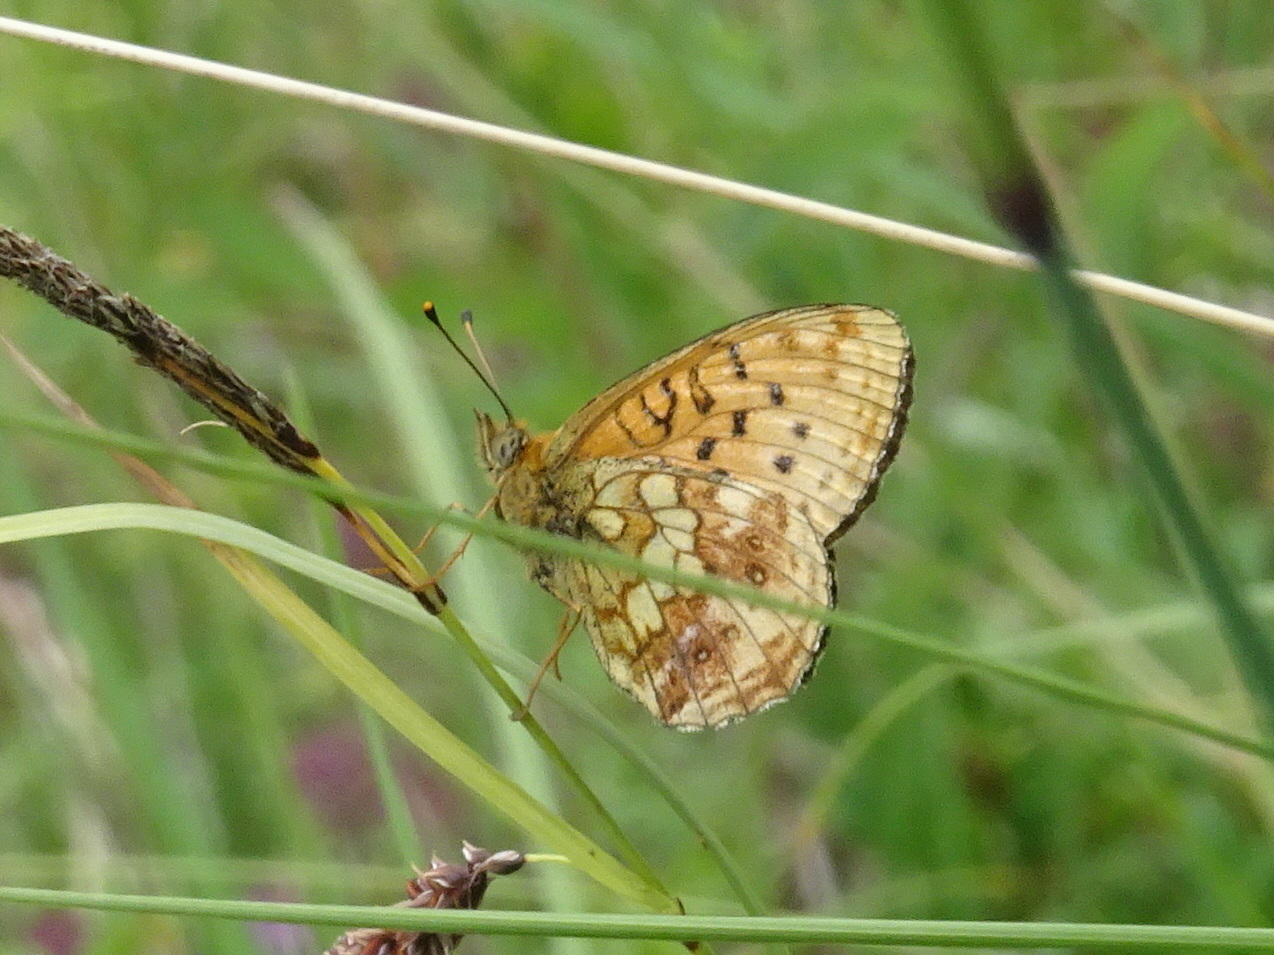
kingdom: Animalia
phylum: Arthropoda
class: Insecta
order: Lepidoptera
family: Nymphalidae
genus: Brenthis
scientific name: Brenthis ino
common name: Lesser marbled fritillary
